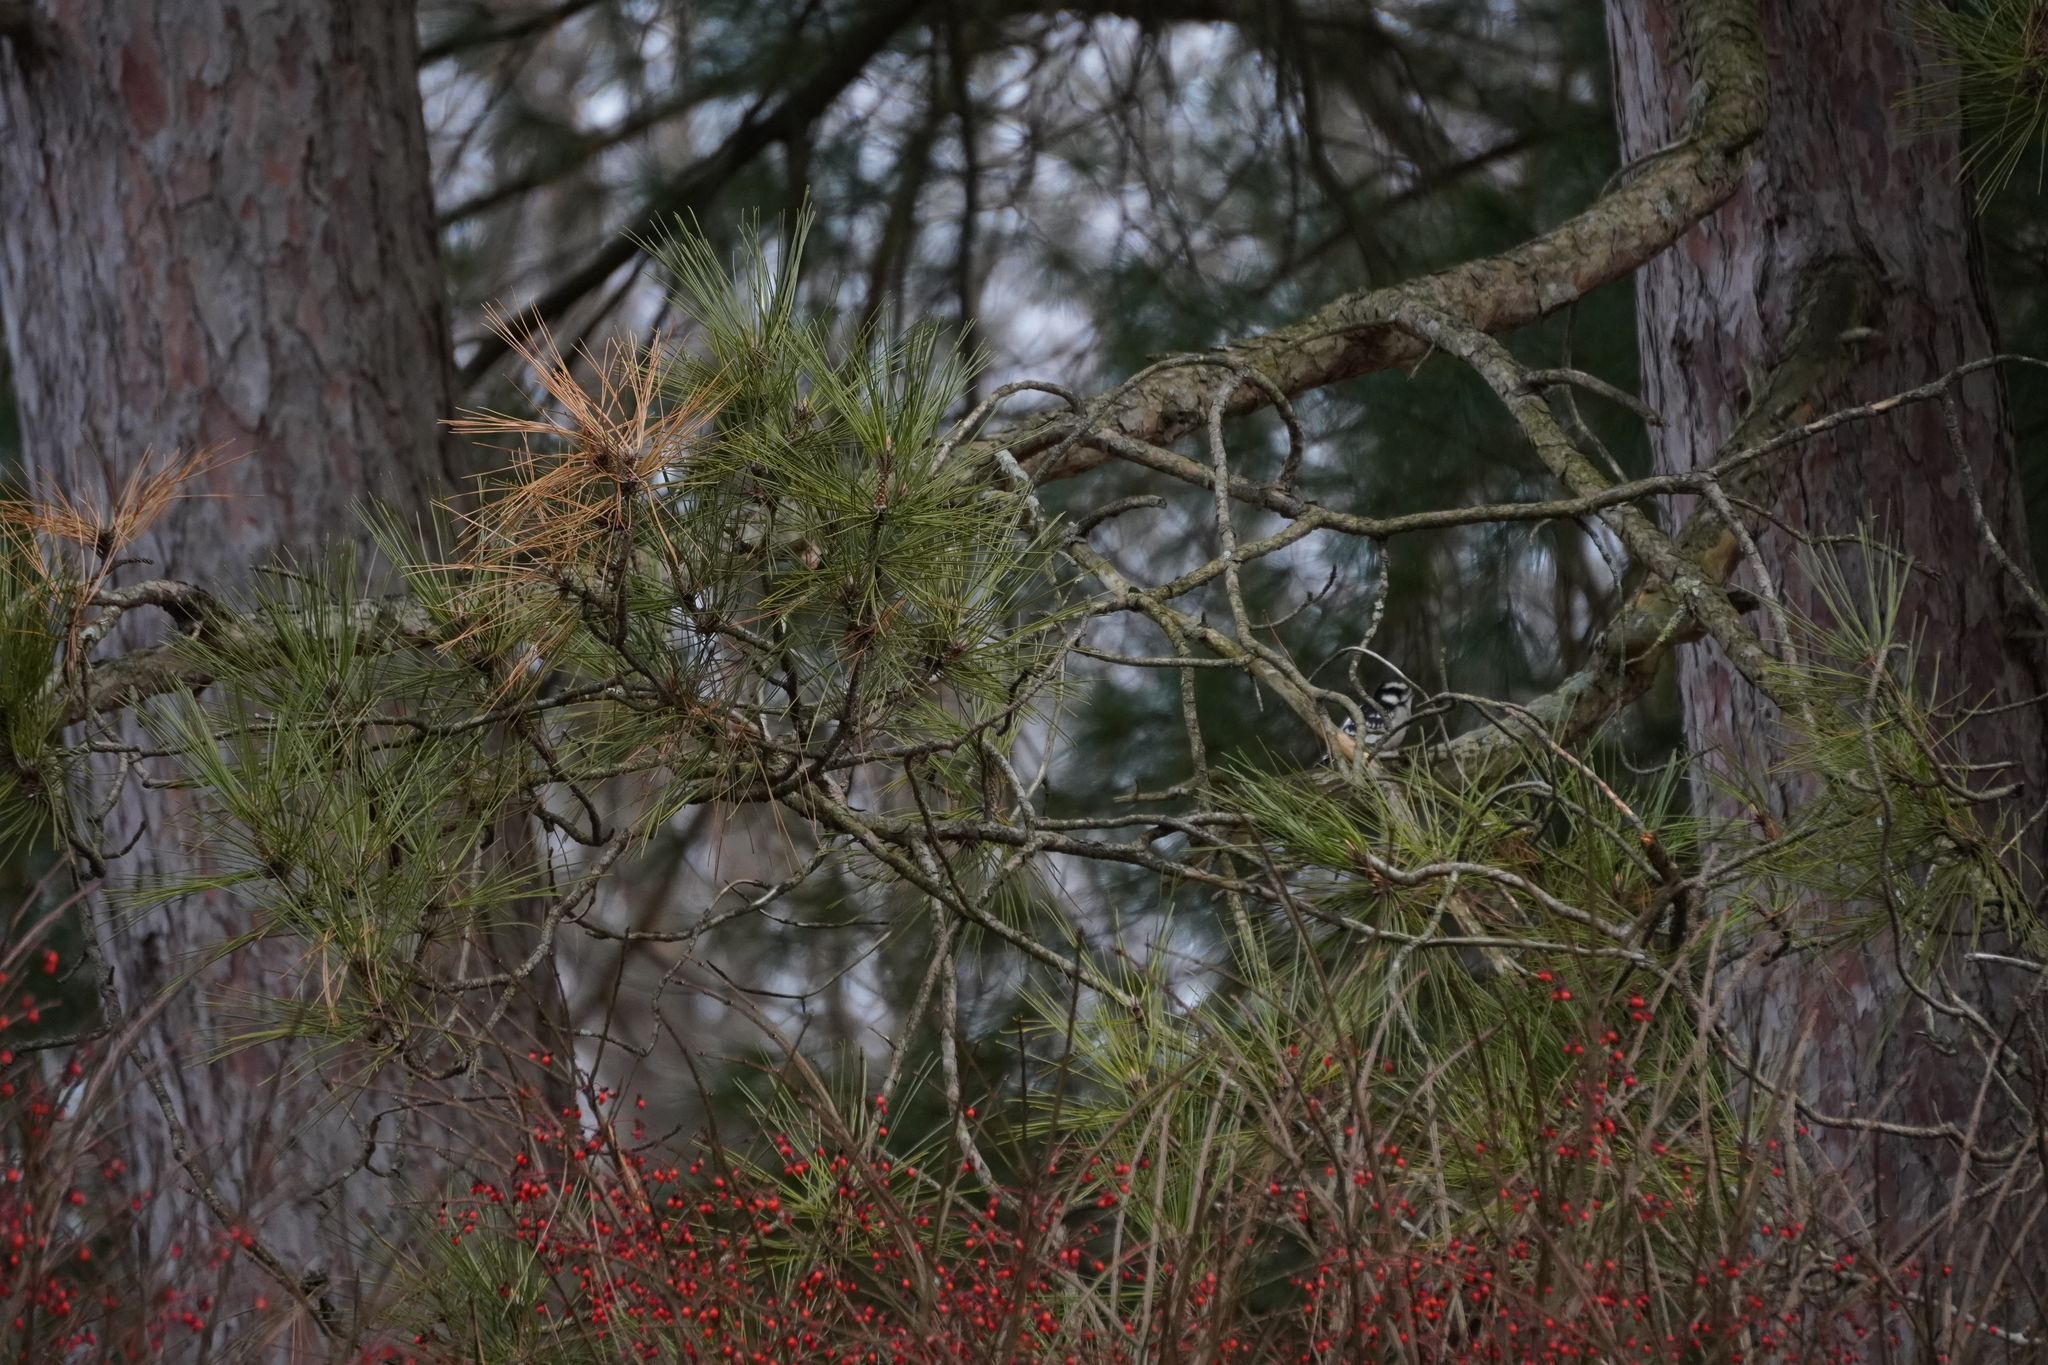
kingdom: Animalia
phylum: Chordata
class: Aves
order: Piciformes
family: Picidae
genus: Dryobates
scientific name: Dryobates pubescens
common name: Downy woodpecker
